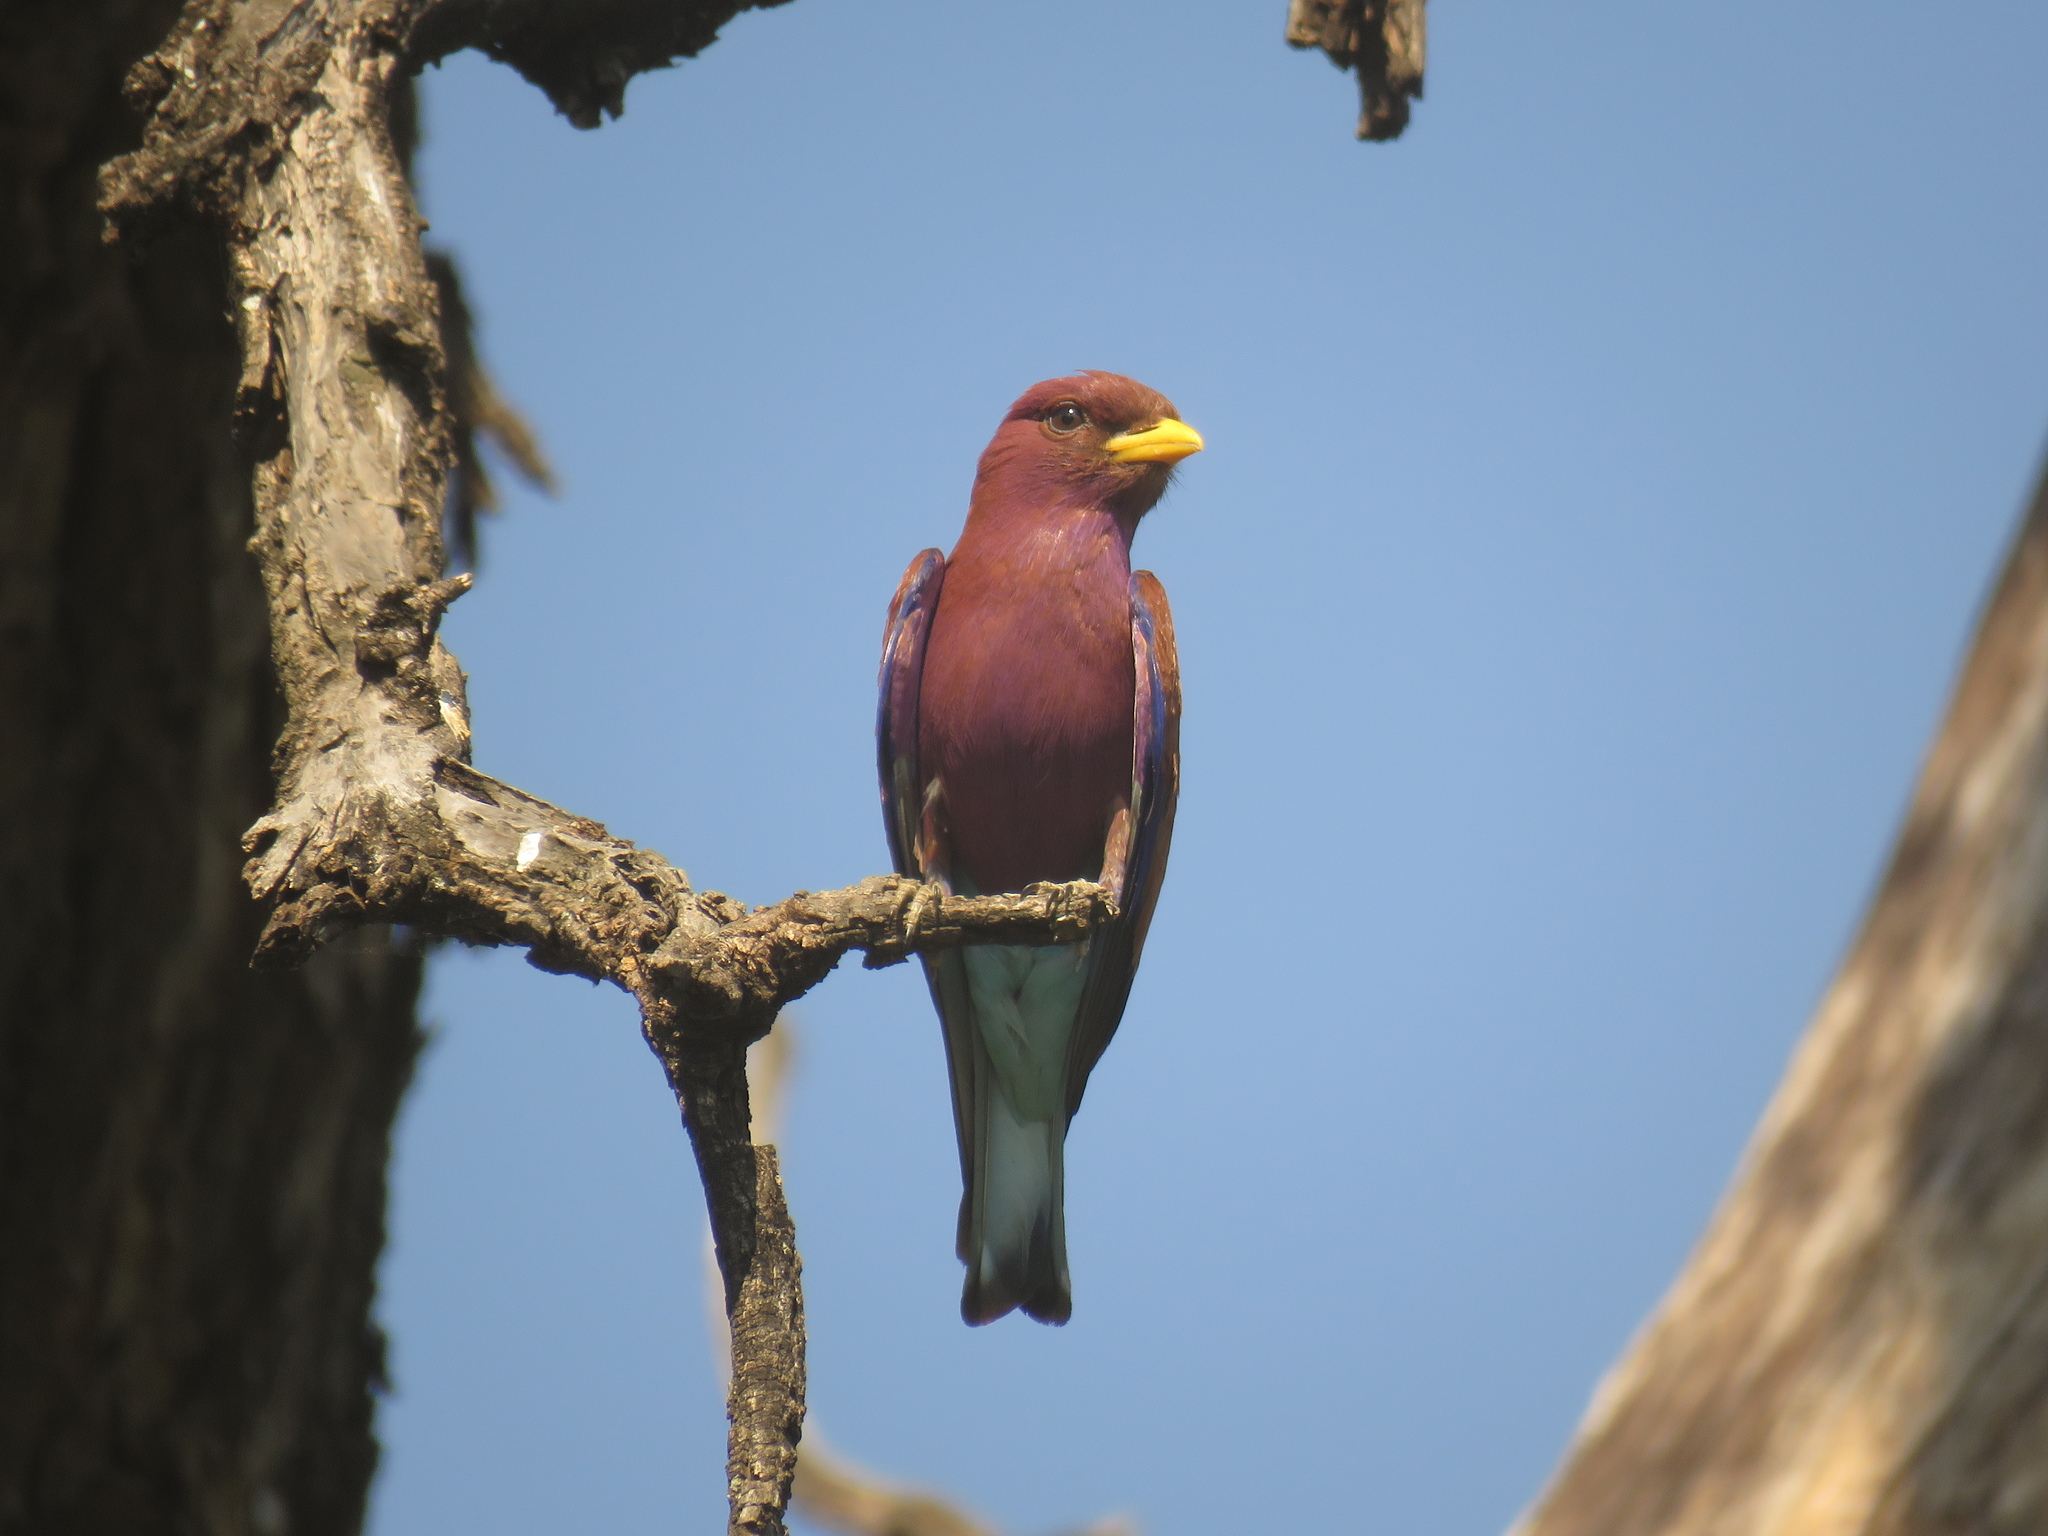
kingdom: Animalia
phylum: Chordata
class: Aves
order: Coraciiformes
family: Coraciidae
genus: Eurystomus
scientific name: Eurystomus glaucurus
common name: Broad-billed roller
